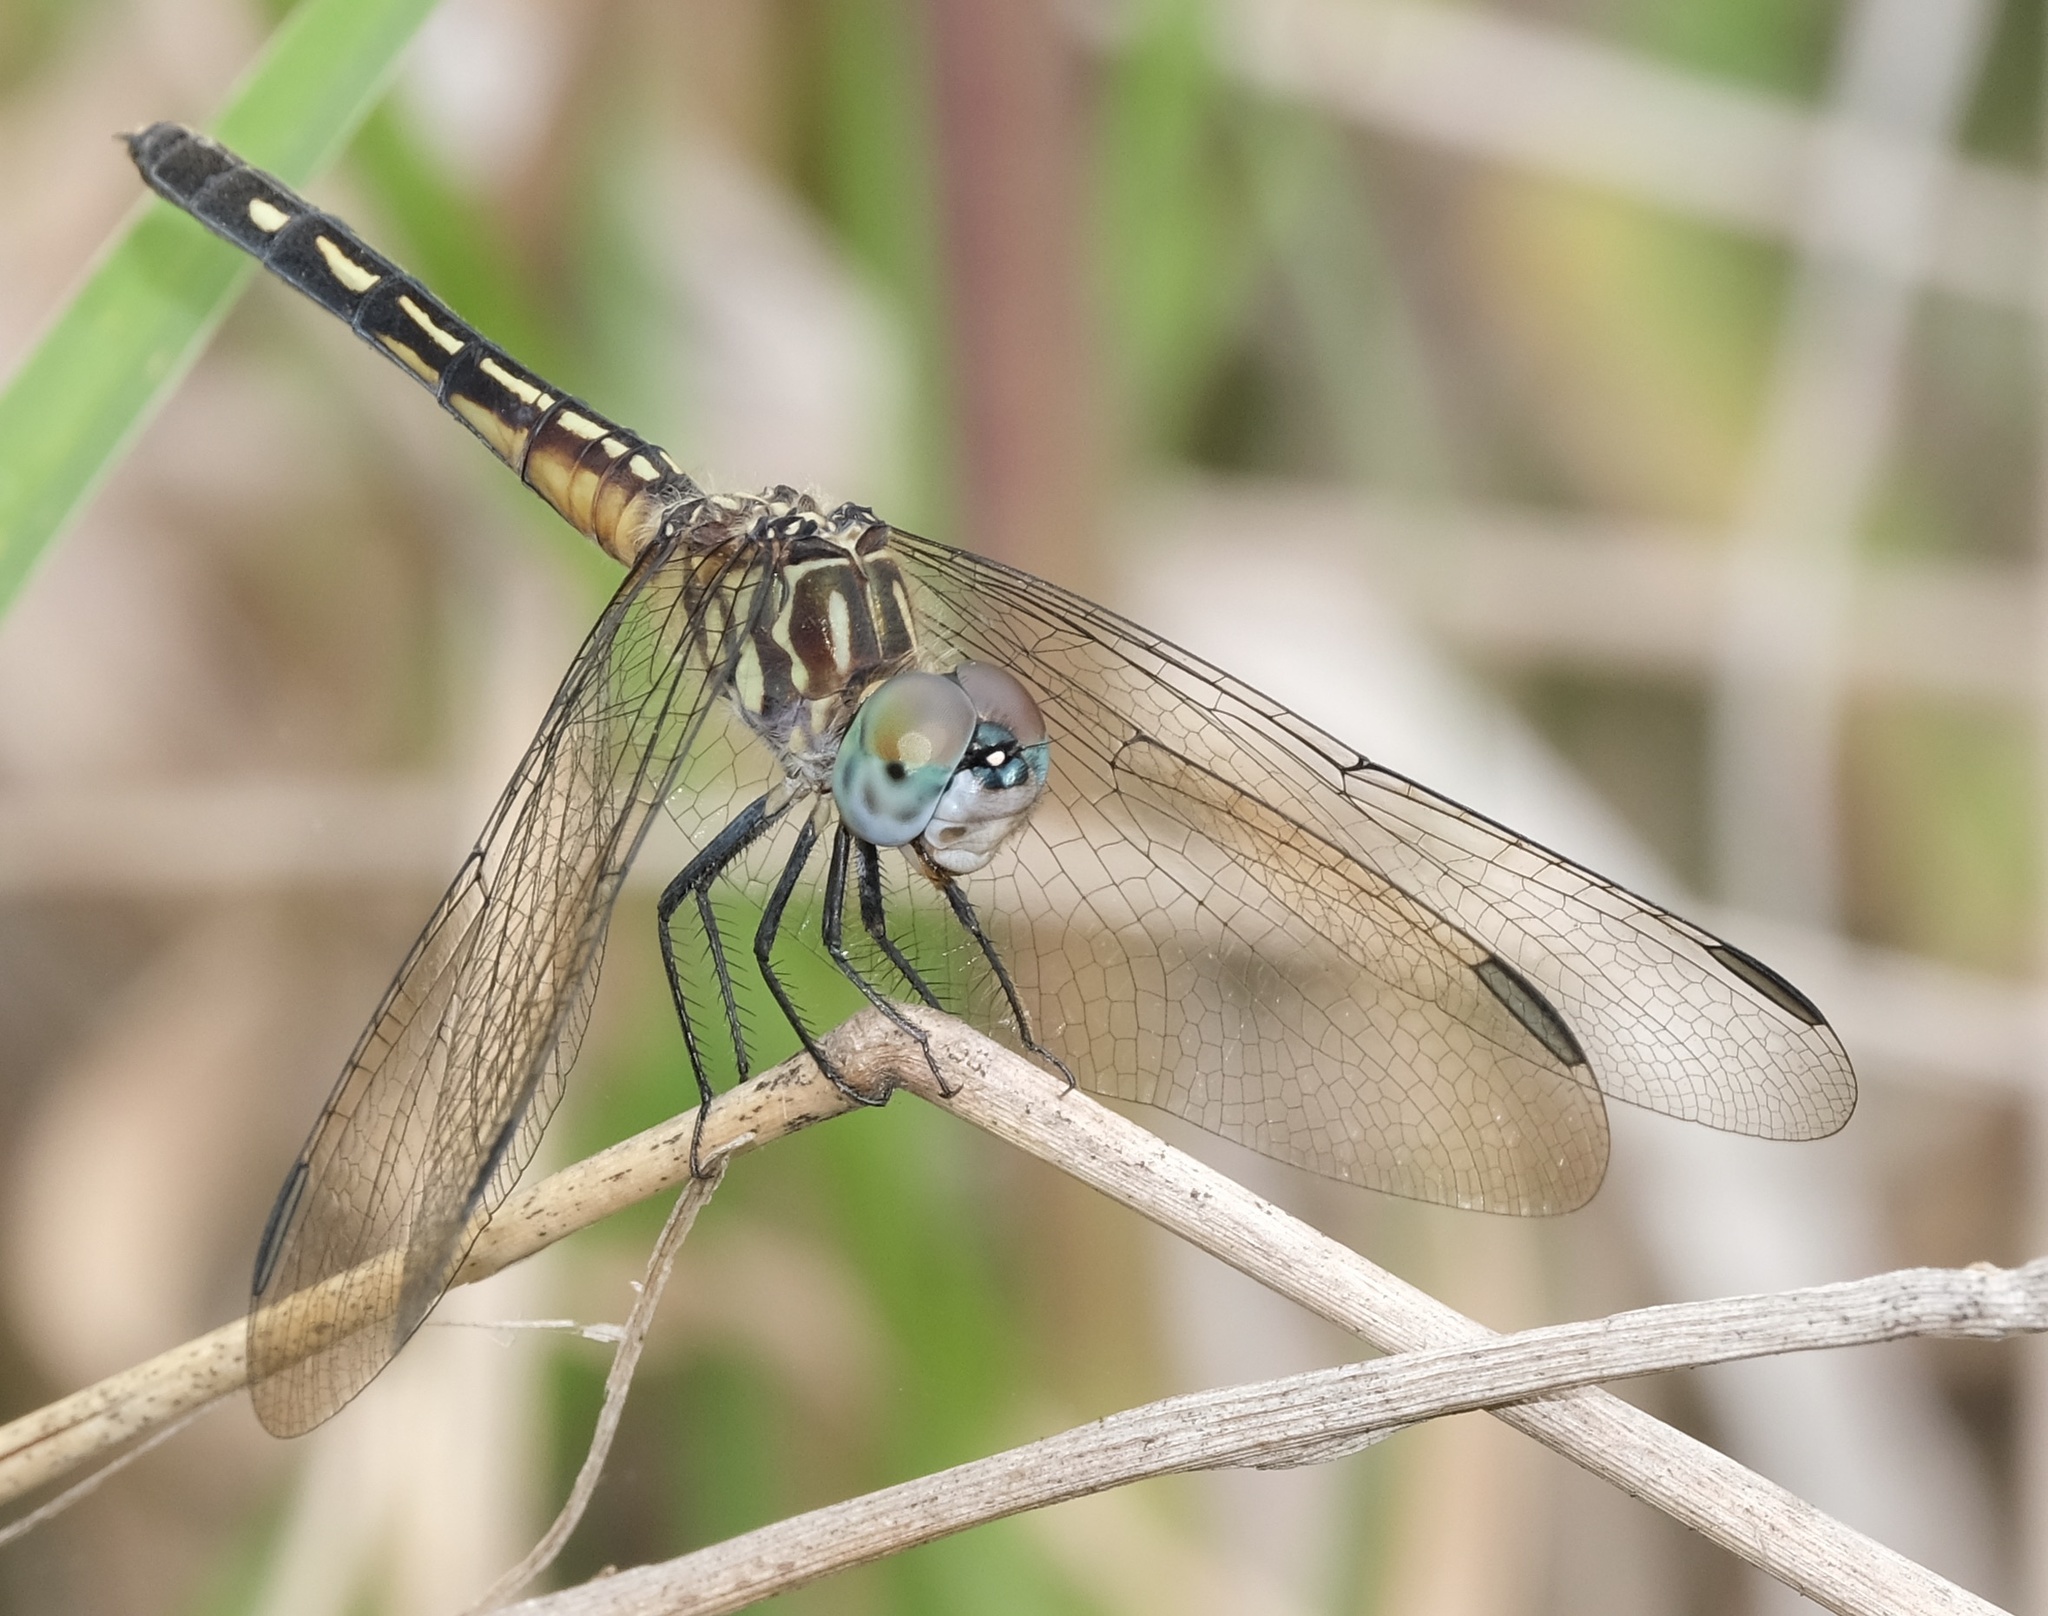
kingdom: Animalia
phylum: Arthropoda
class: Insecta
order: Odonata
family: Libellulidae
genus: Pachydiplax
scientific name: Pachydiplax longipennis
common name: Blue dasher
